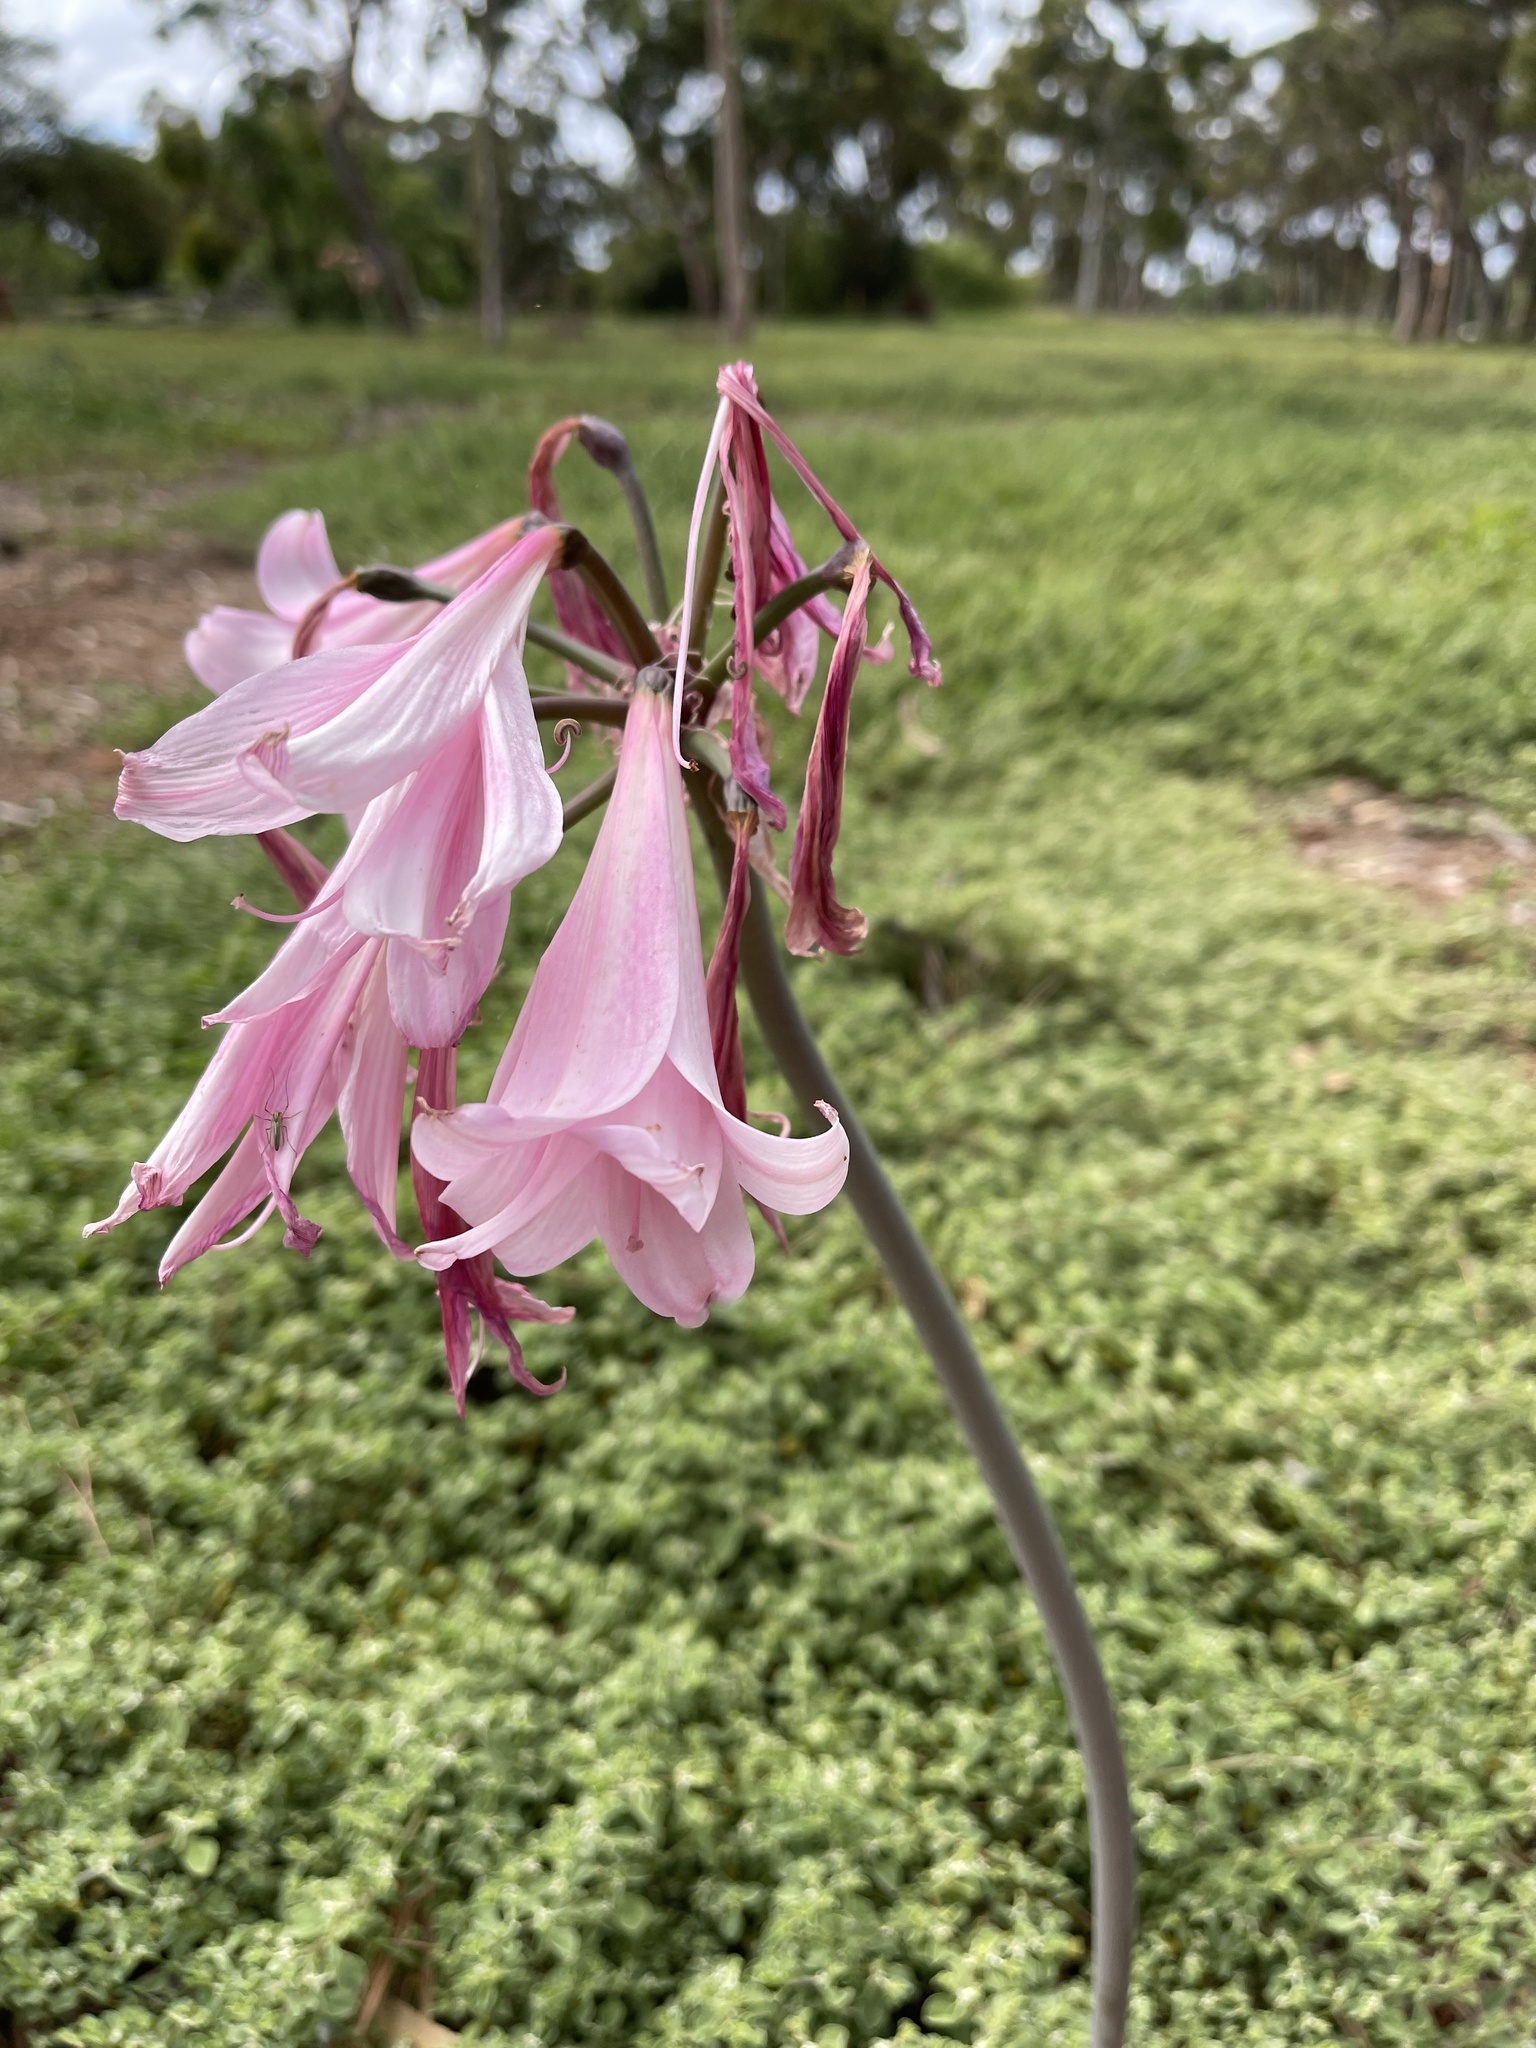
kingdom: Plantae
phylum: Tracheophyta
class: Liliopsida
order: Asparagales
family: Amaryllidaceae
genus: Amaryllis
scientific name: Amaryllis belladonna
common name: Jersey lily
